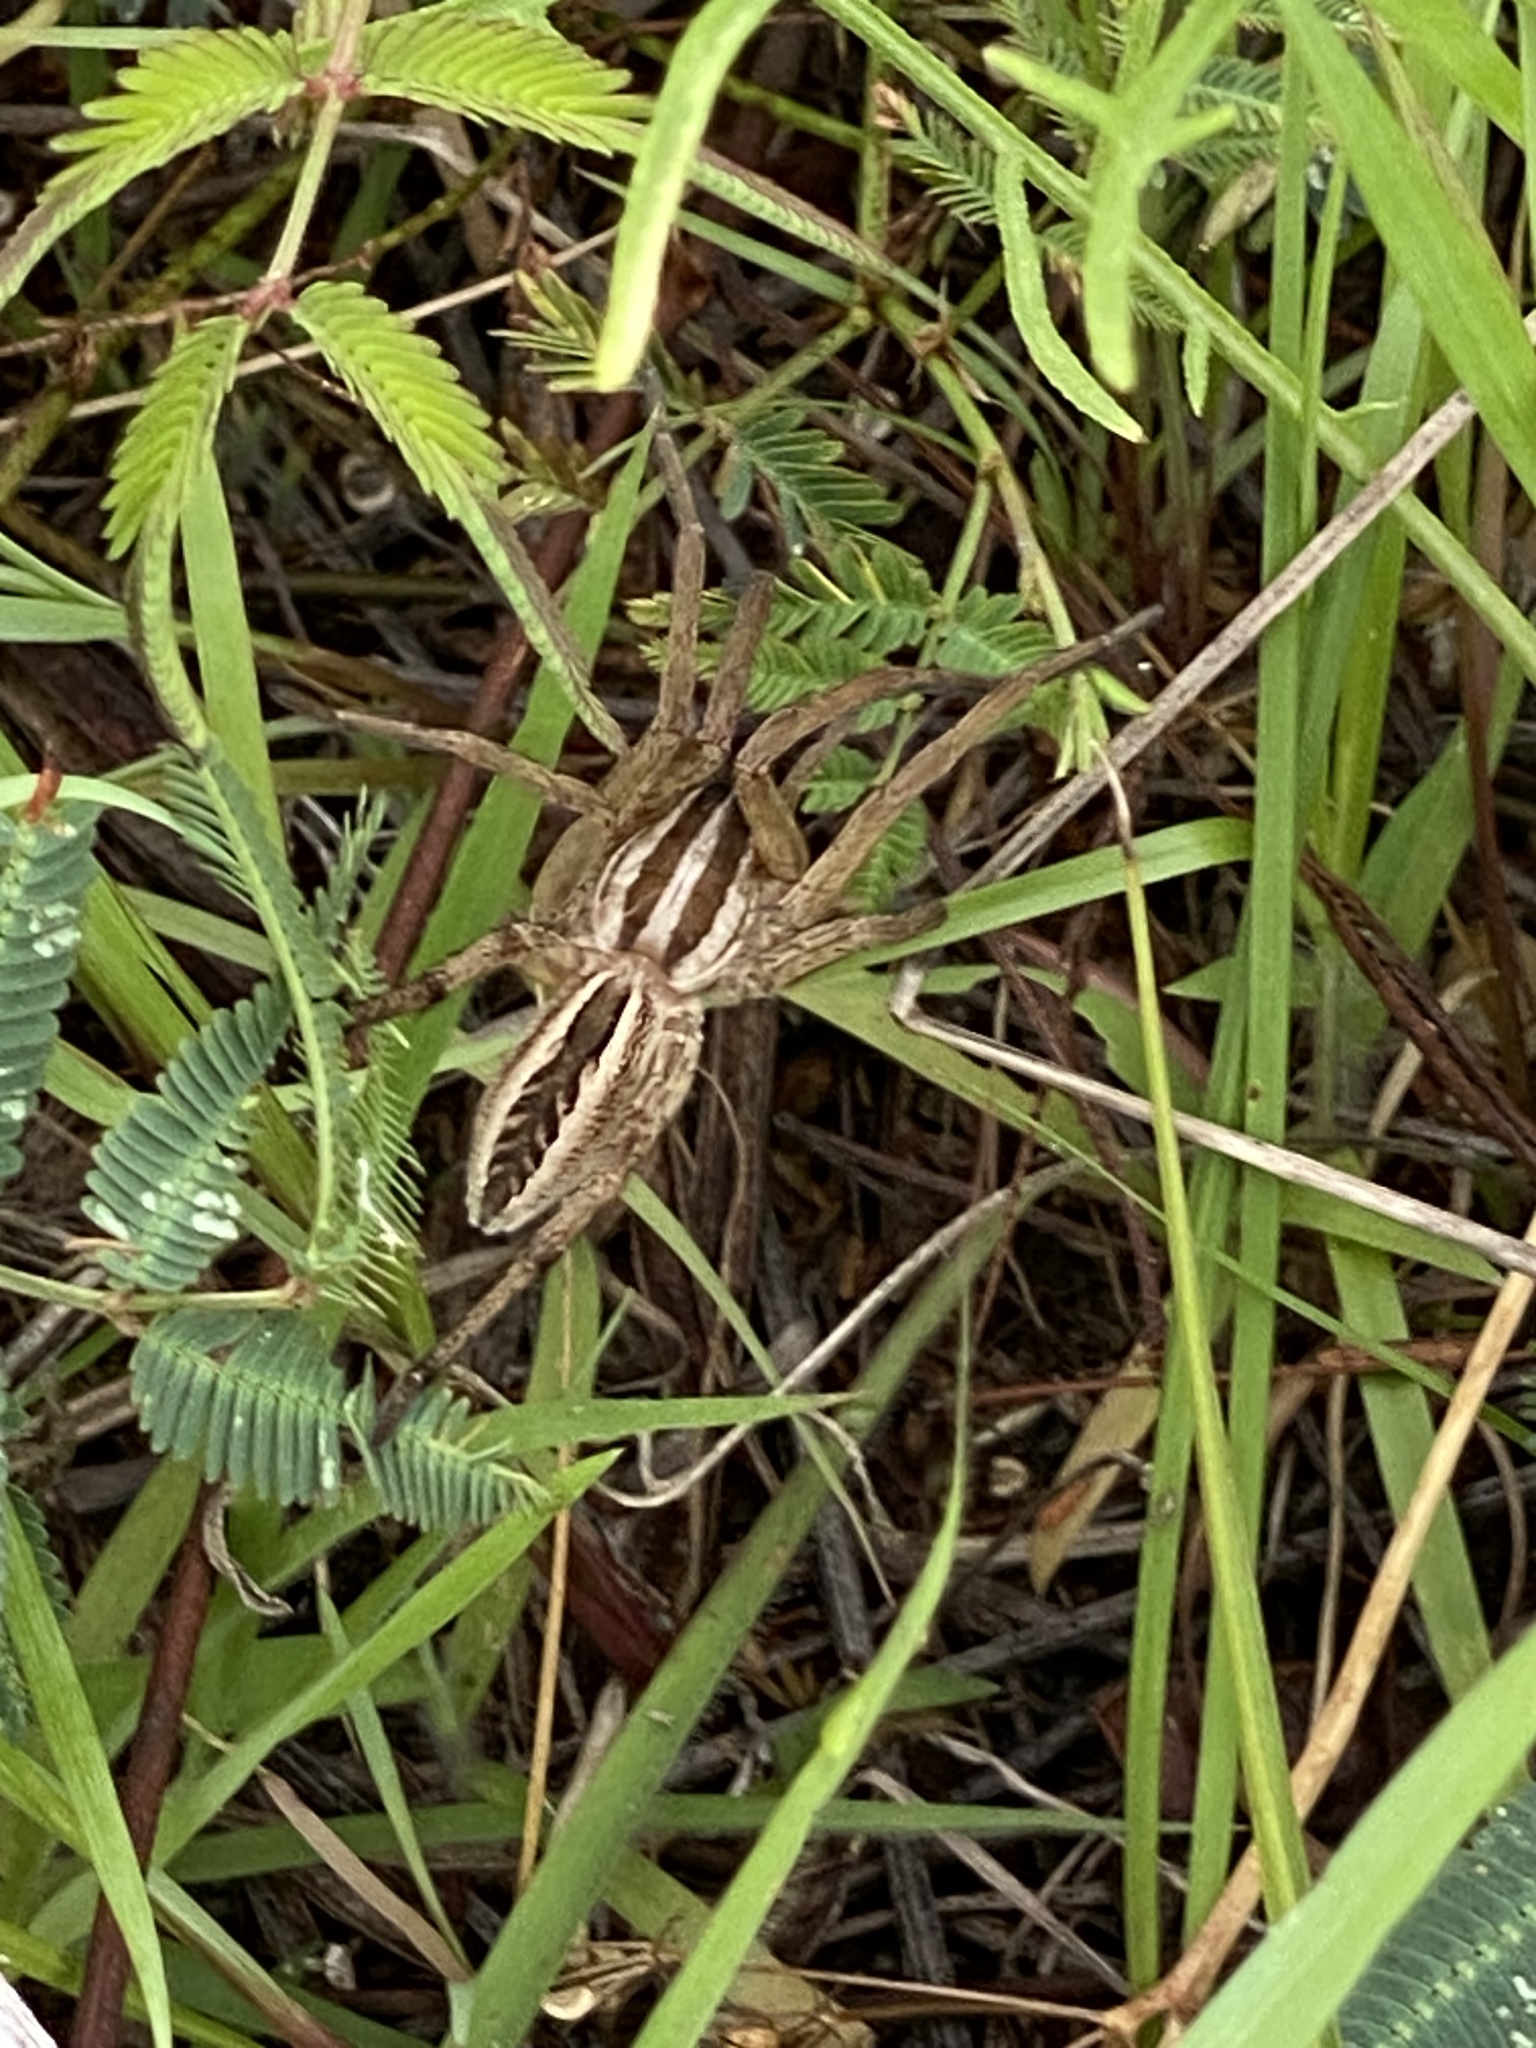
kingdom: Animalia
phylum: Arthropoda
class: Arachnida
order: Araneae
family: Lycosidae
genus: Rabidosa
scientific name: Rabidosa rabida
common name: Rabid wolf spider
